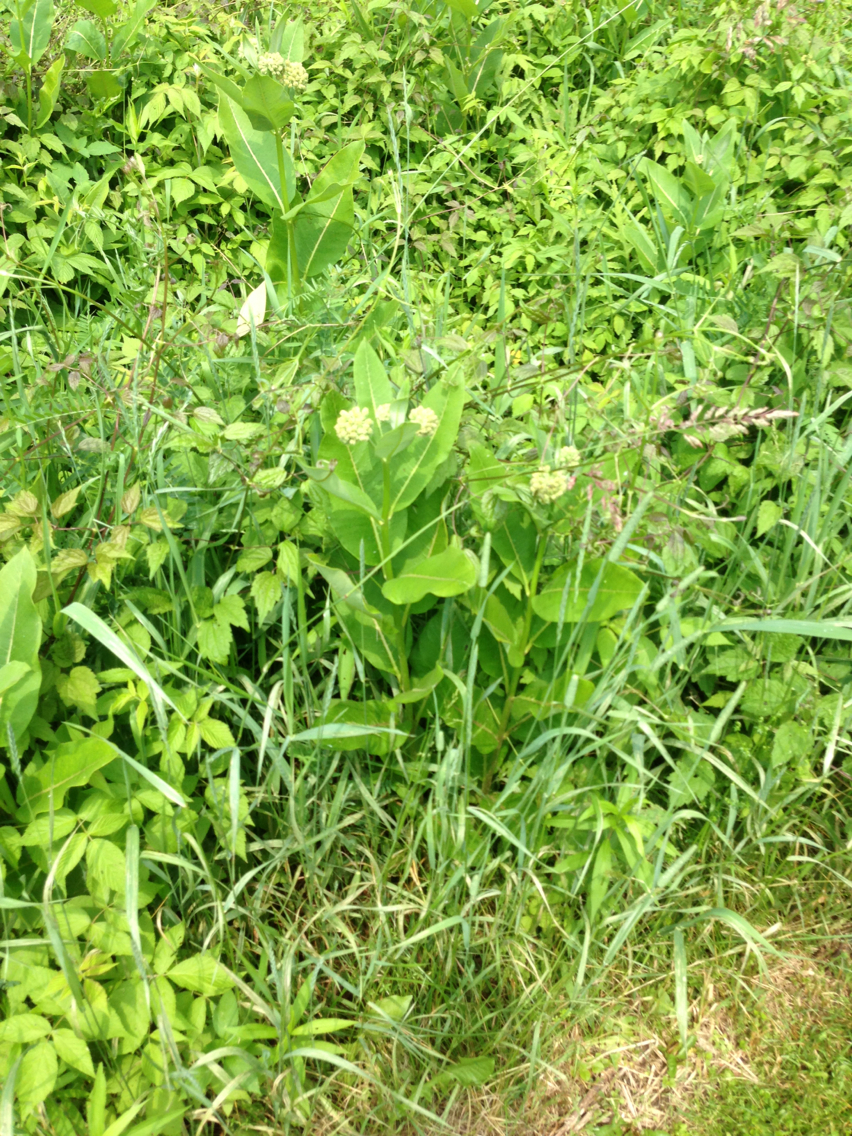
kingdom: Plantae
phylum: Tracheophyta
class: Magnoliopsida
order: Gentianales
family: Apocynaceae
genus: Asclepias
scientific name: Asclepias syriaca
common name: Common milkweed
